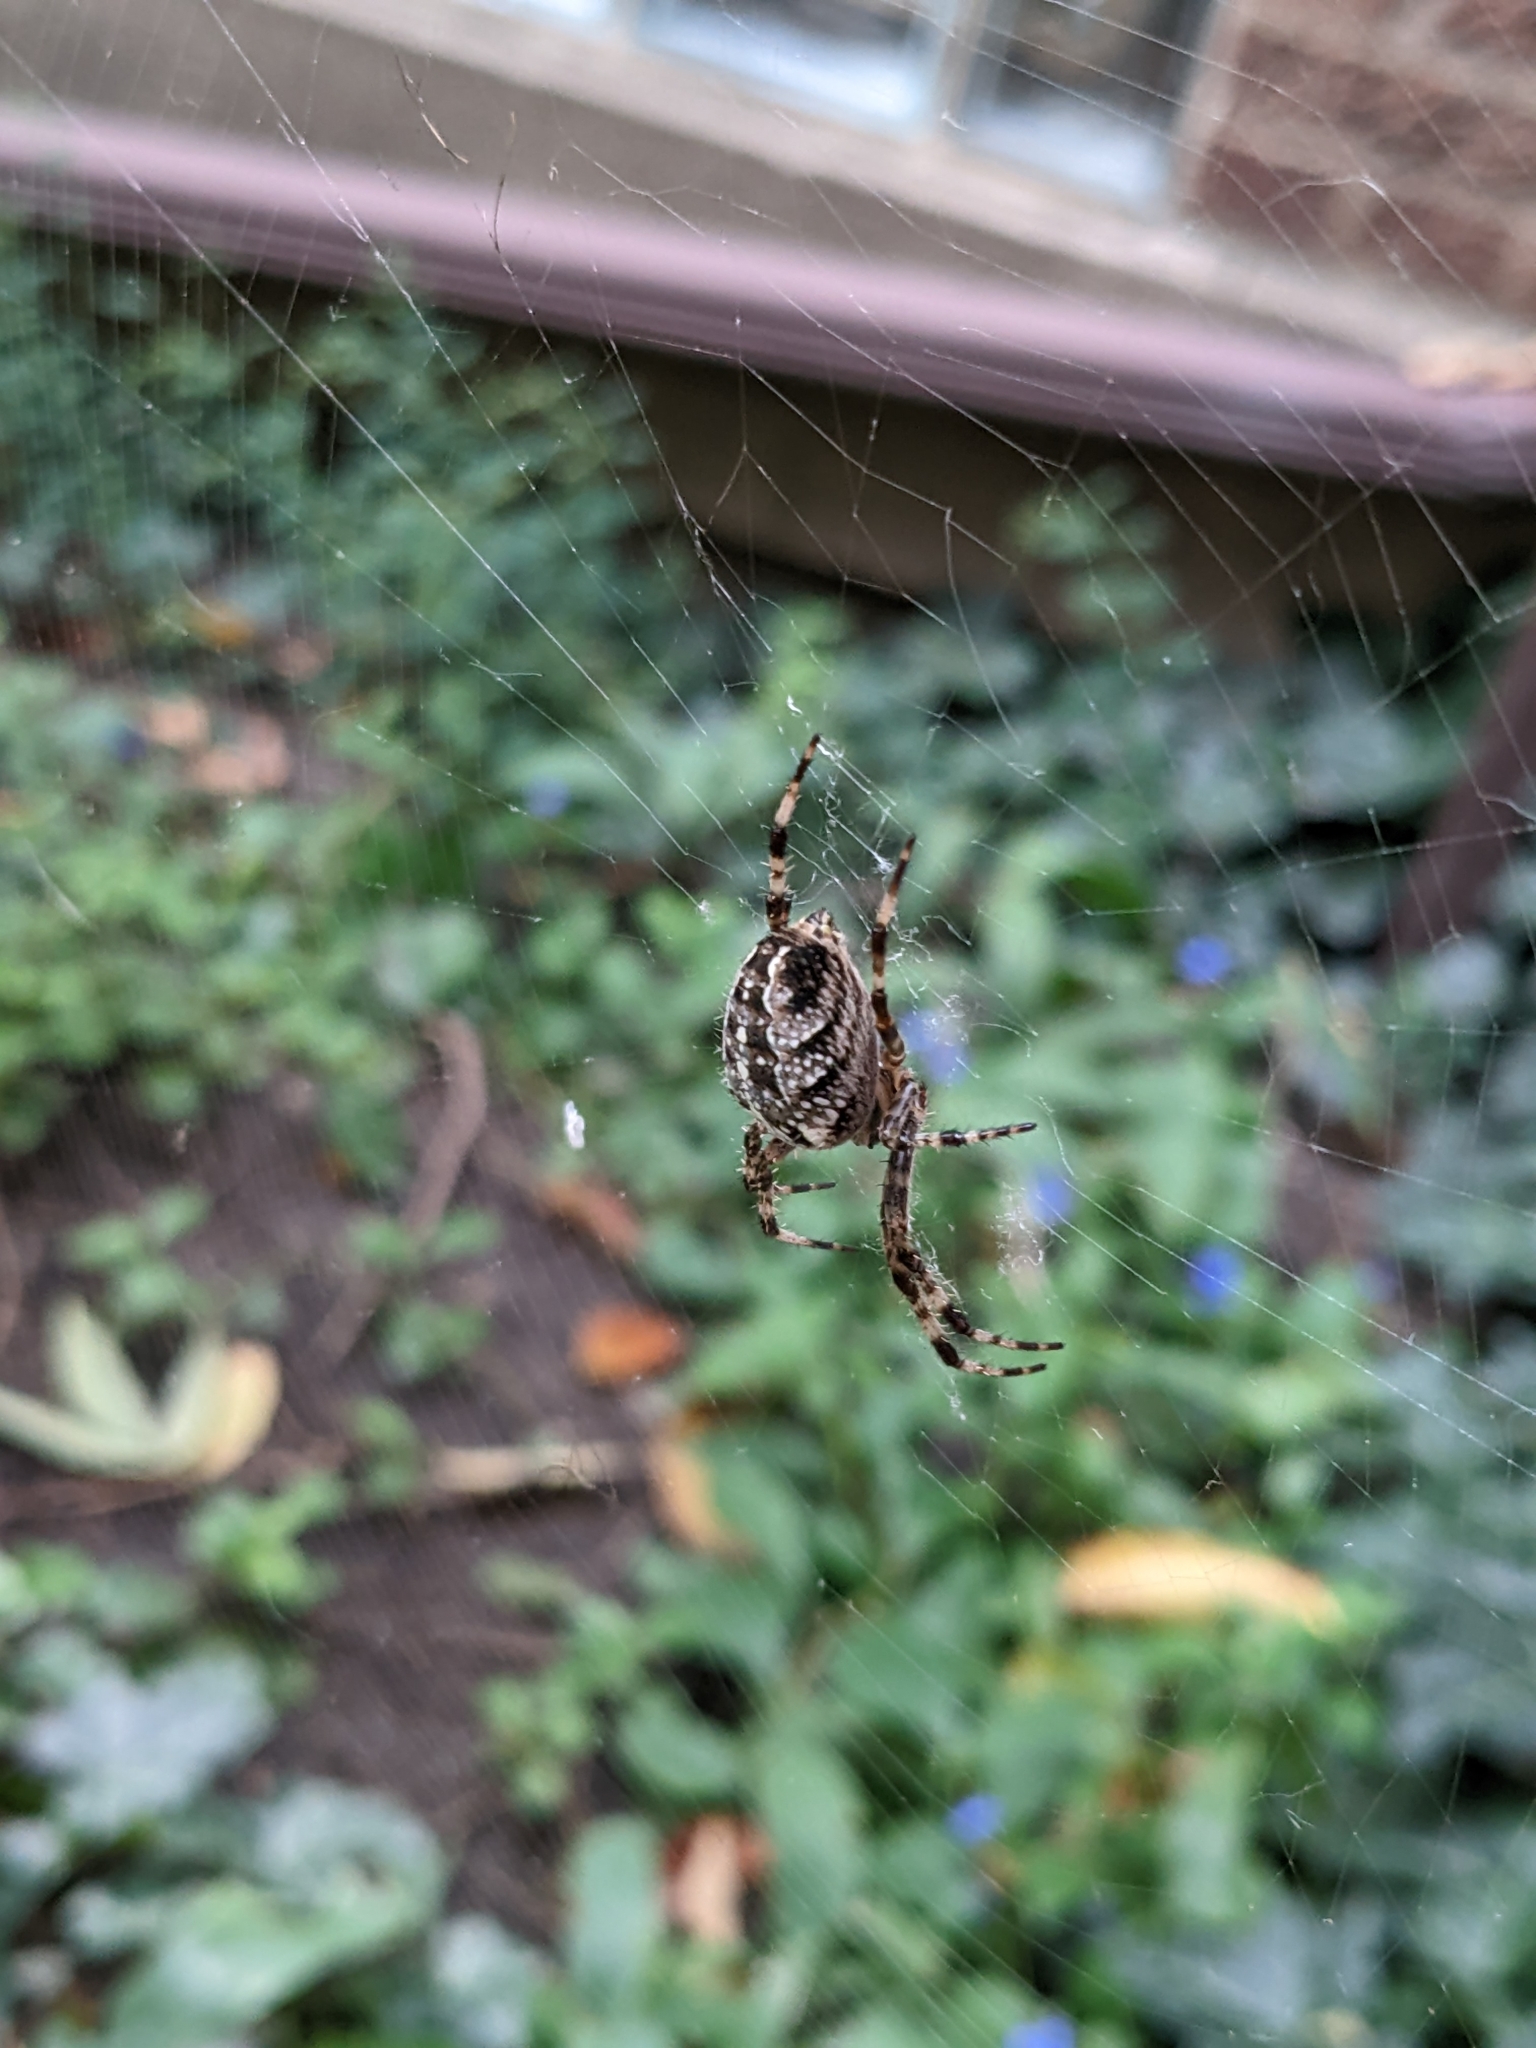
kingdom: Animalia
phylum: Arthropoda
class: Arachnida
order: Araneae
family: Araneidae
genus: Araneus
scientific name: Araneus diadematus
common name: Cross orbweaver
